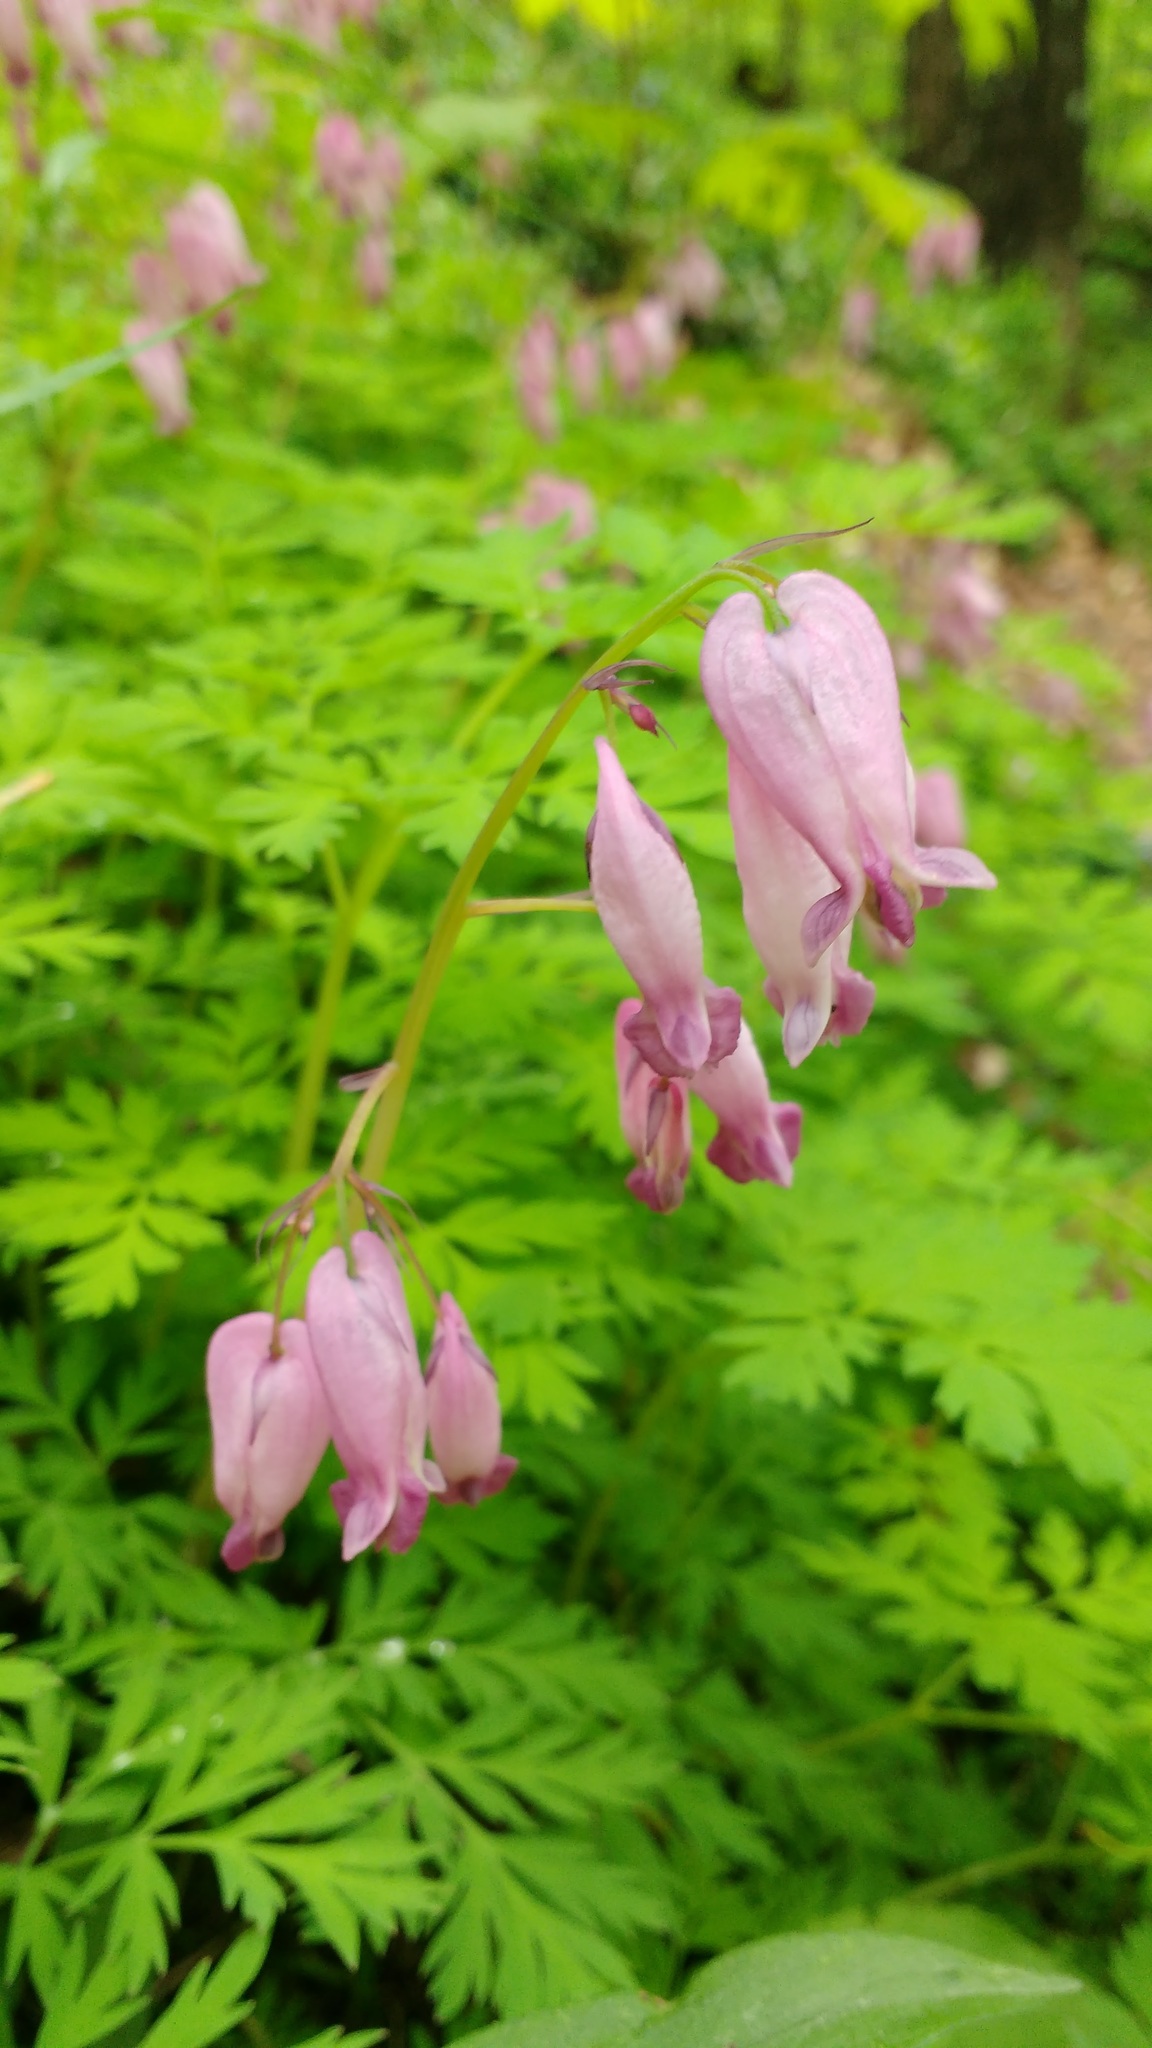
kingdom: Plantae
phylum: Tracheophyta
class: Magnoliopsida
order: Ranunculales
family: Papaveraceae
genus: Dicentra
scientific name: Dicentra eximia
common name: Turkey-corn
